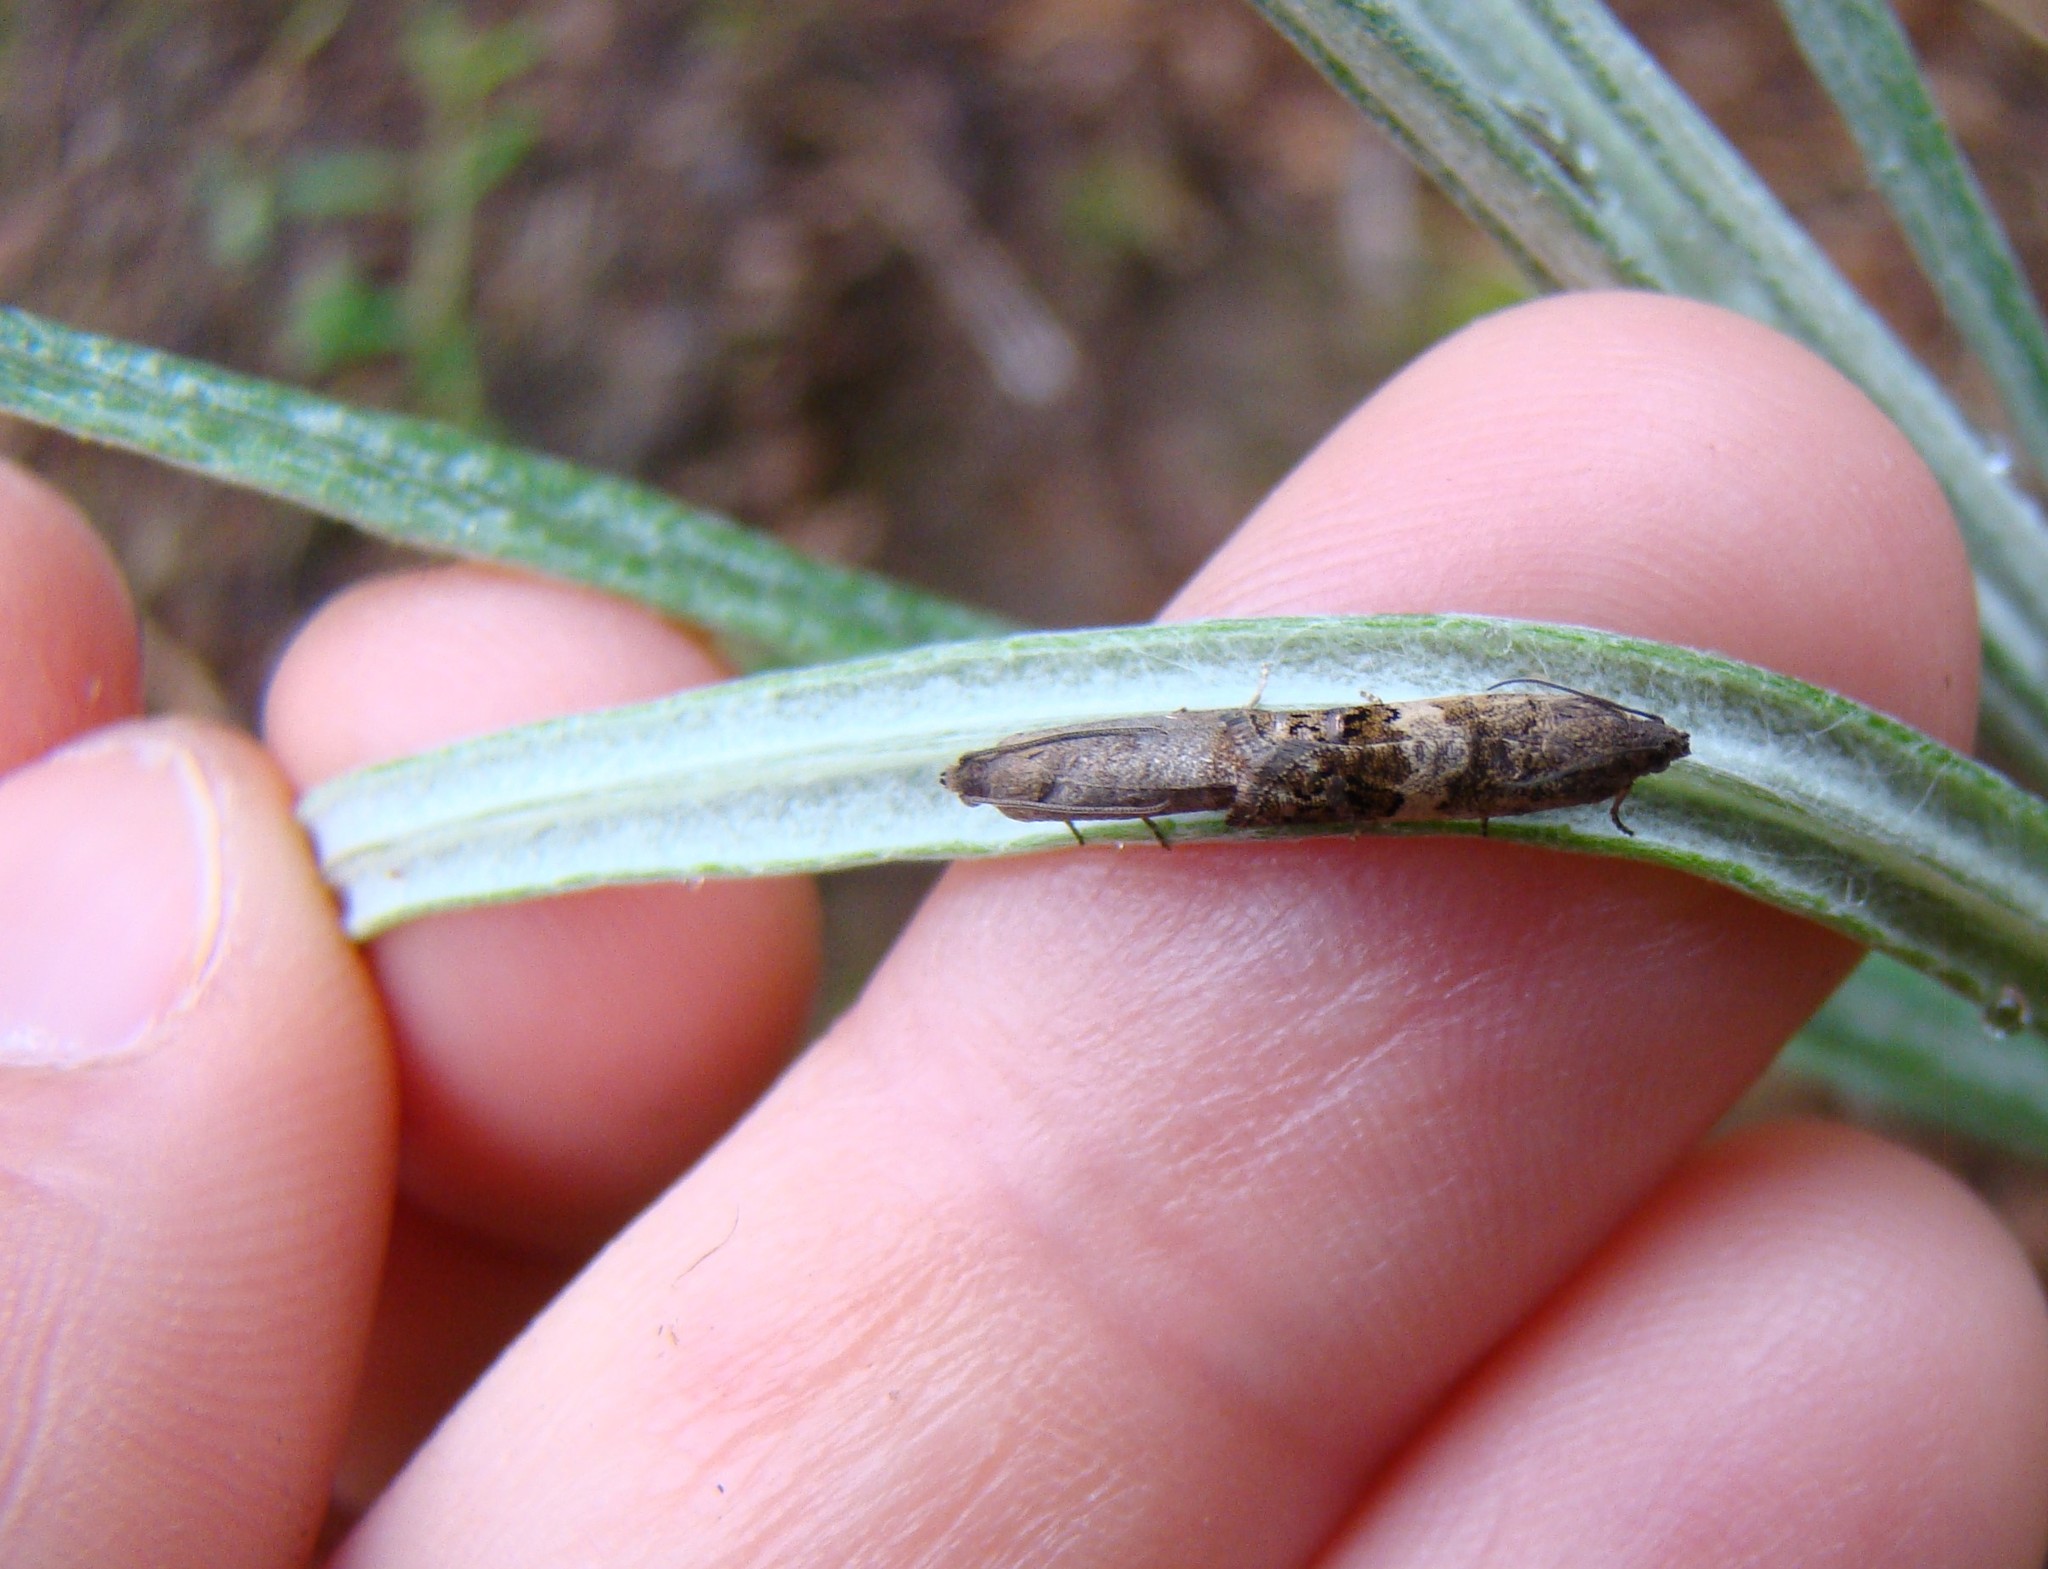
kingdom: Animalia
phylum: Arthropoda
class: Insecta
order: Lepidoptera
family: Tortricidae
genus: Cydia
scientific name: Cydia succedana
